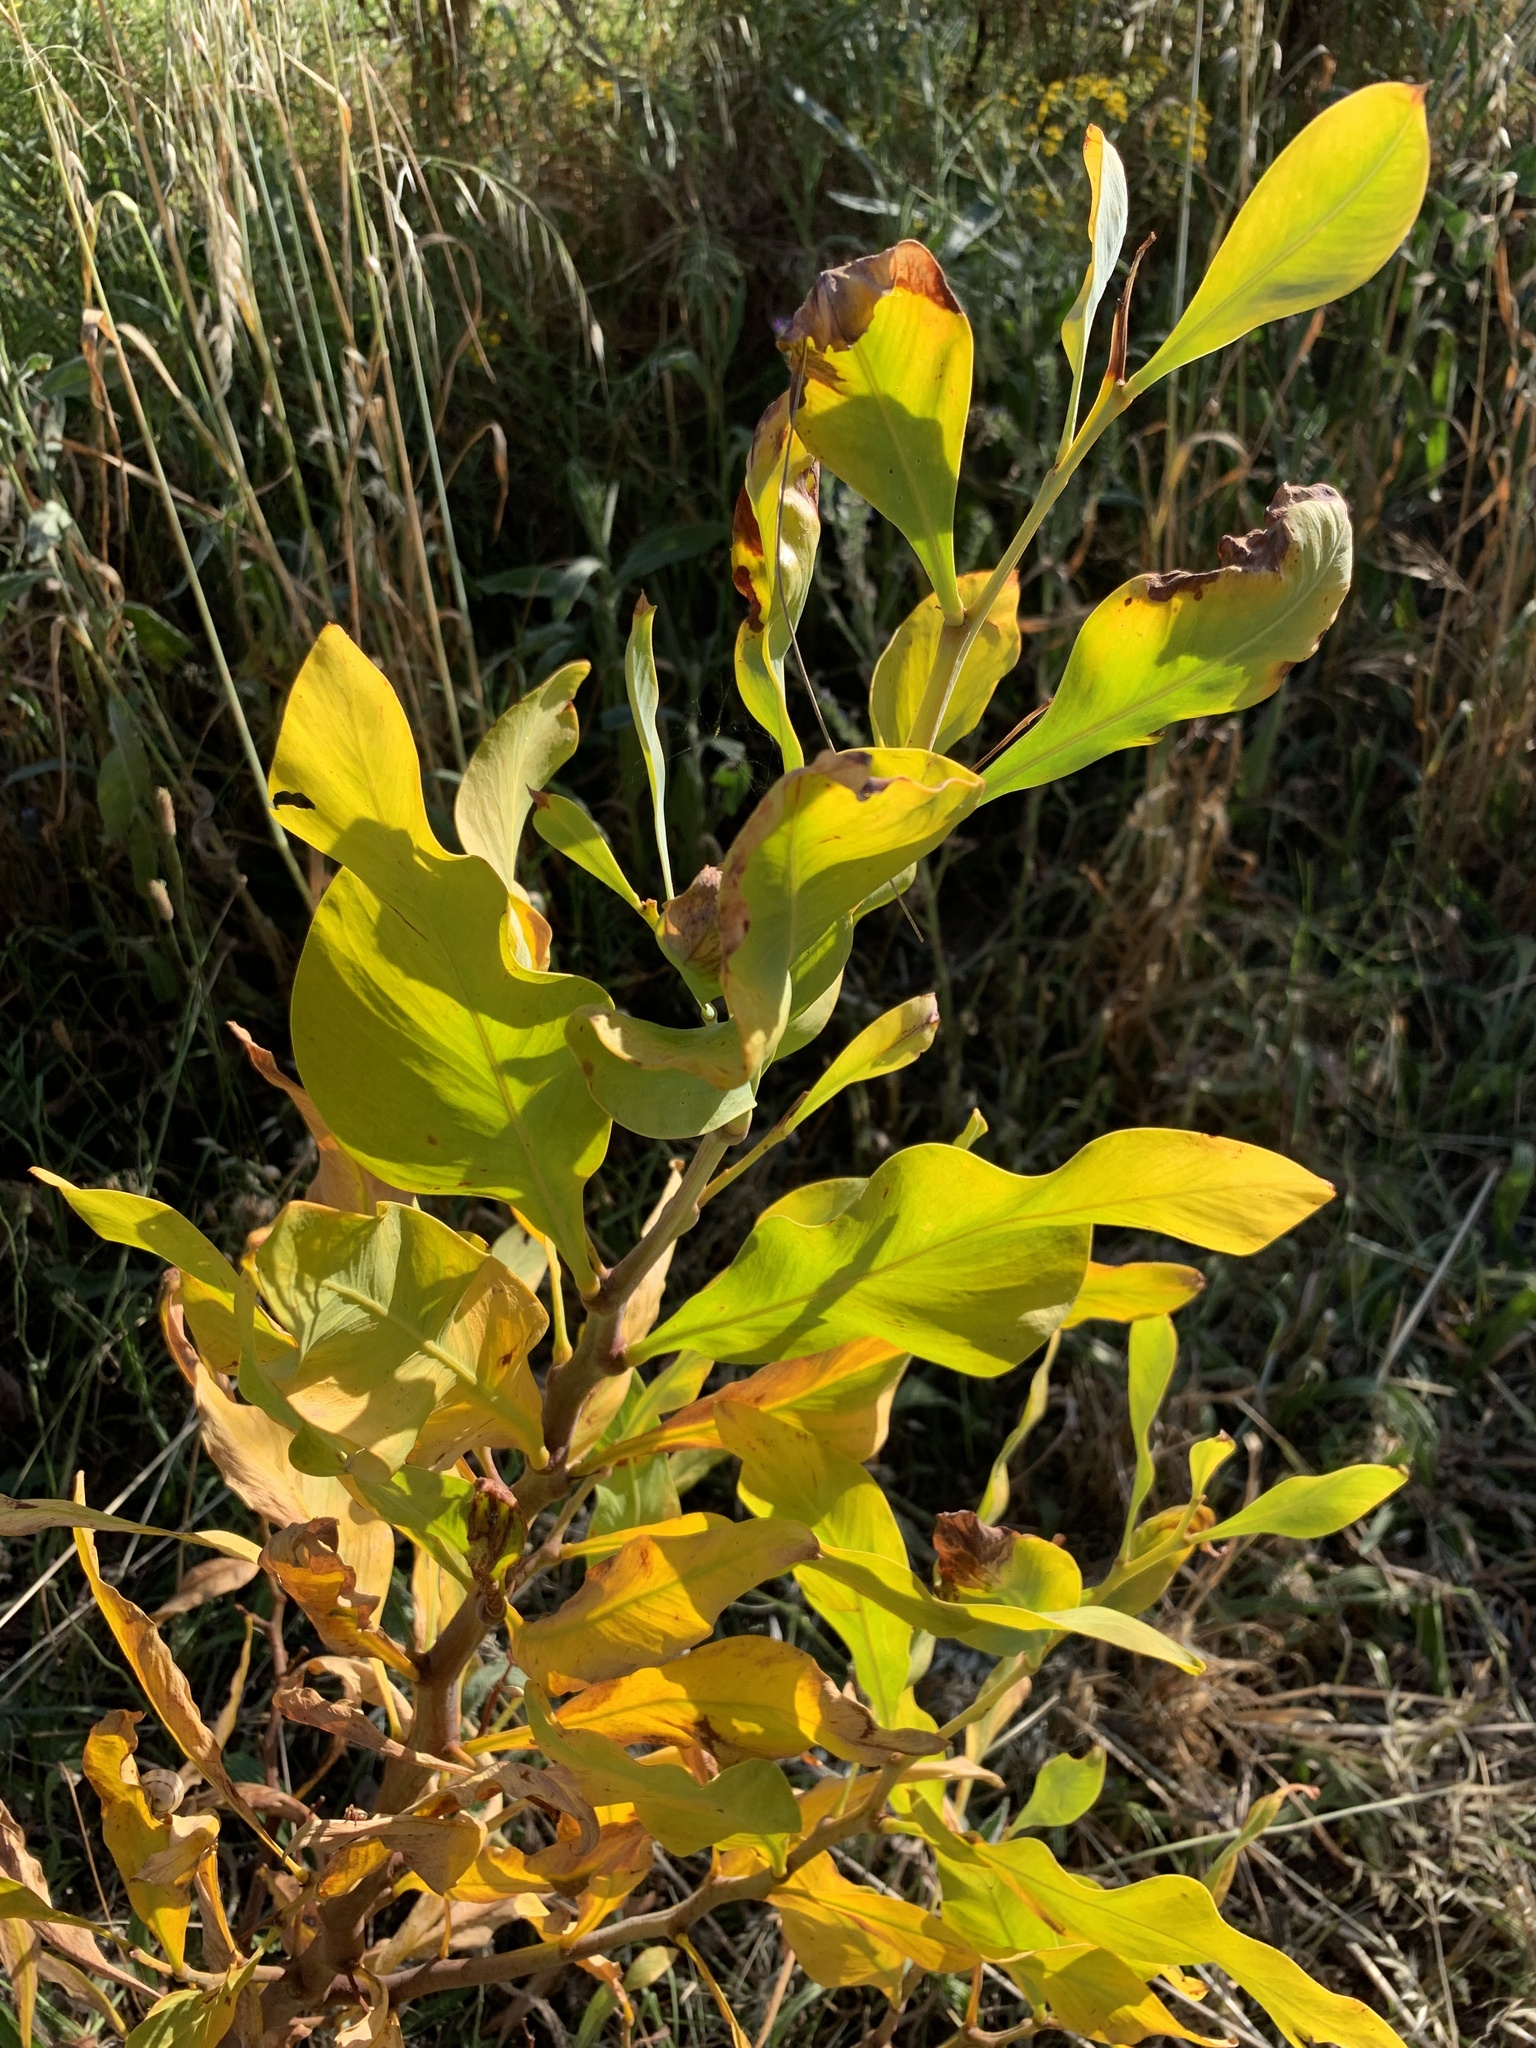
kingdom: Plantae
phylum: Tracheophyta
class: Magnoliopsida
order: Fabales
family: Fabaceae
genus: Acacia
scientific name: Acacia saligna
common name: Orange wattle
